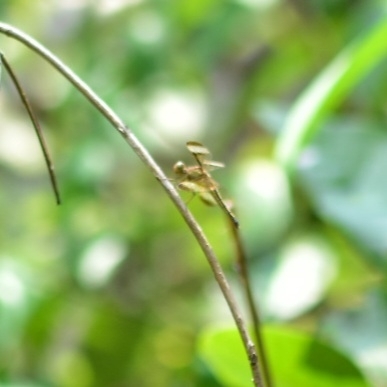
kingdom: Animalia
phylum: Arthropoda
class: Insecta
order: Odonata
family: Libellulidae
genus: Neurothemis
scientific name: Neurothemis tullia
